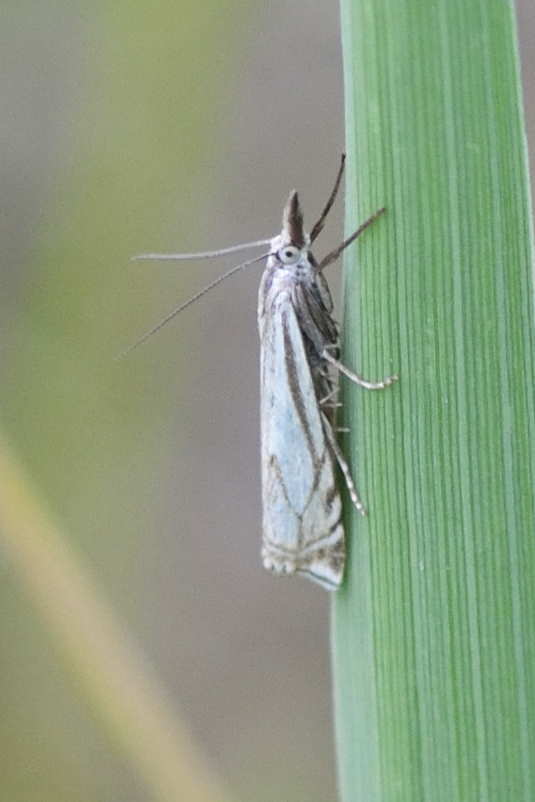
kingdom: Animalia
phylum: Arthropoda
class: Insecta
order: Lepidoptera
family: Crambidae
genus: Crambus
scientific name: Crambus nemorella
